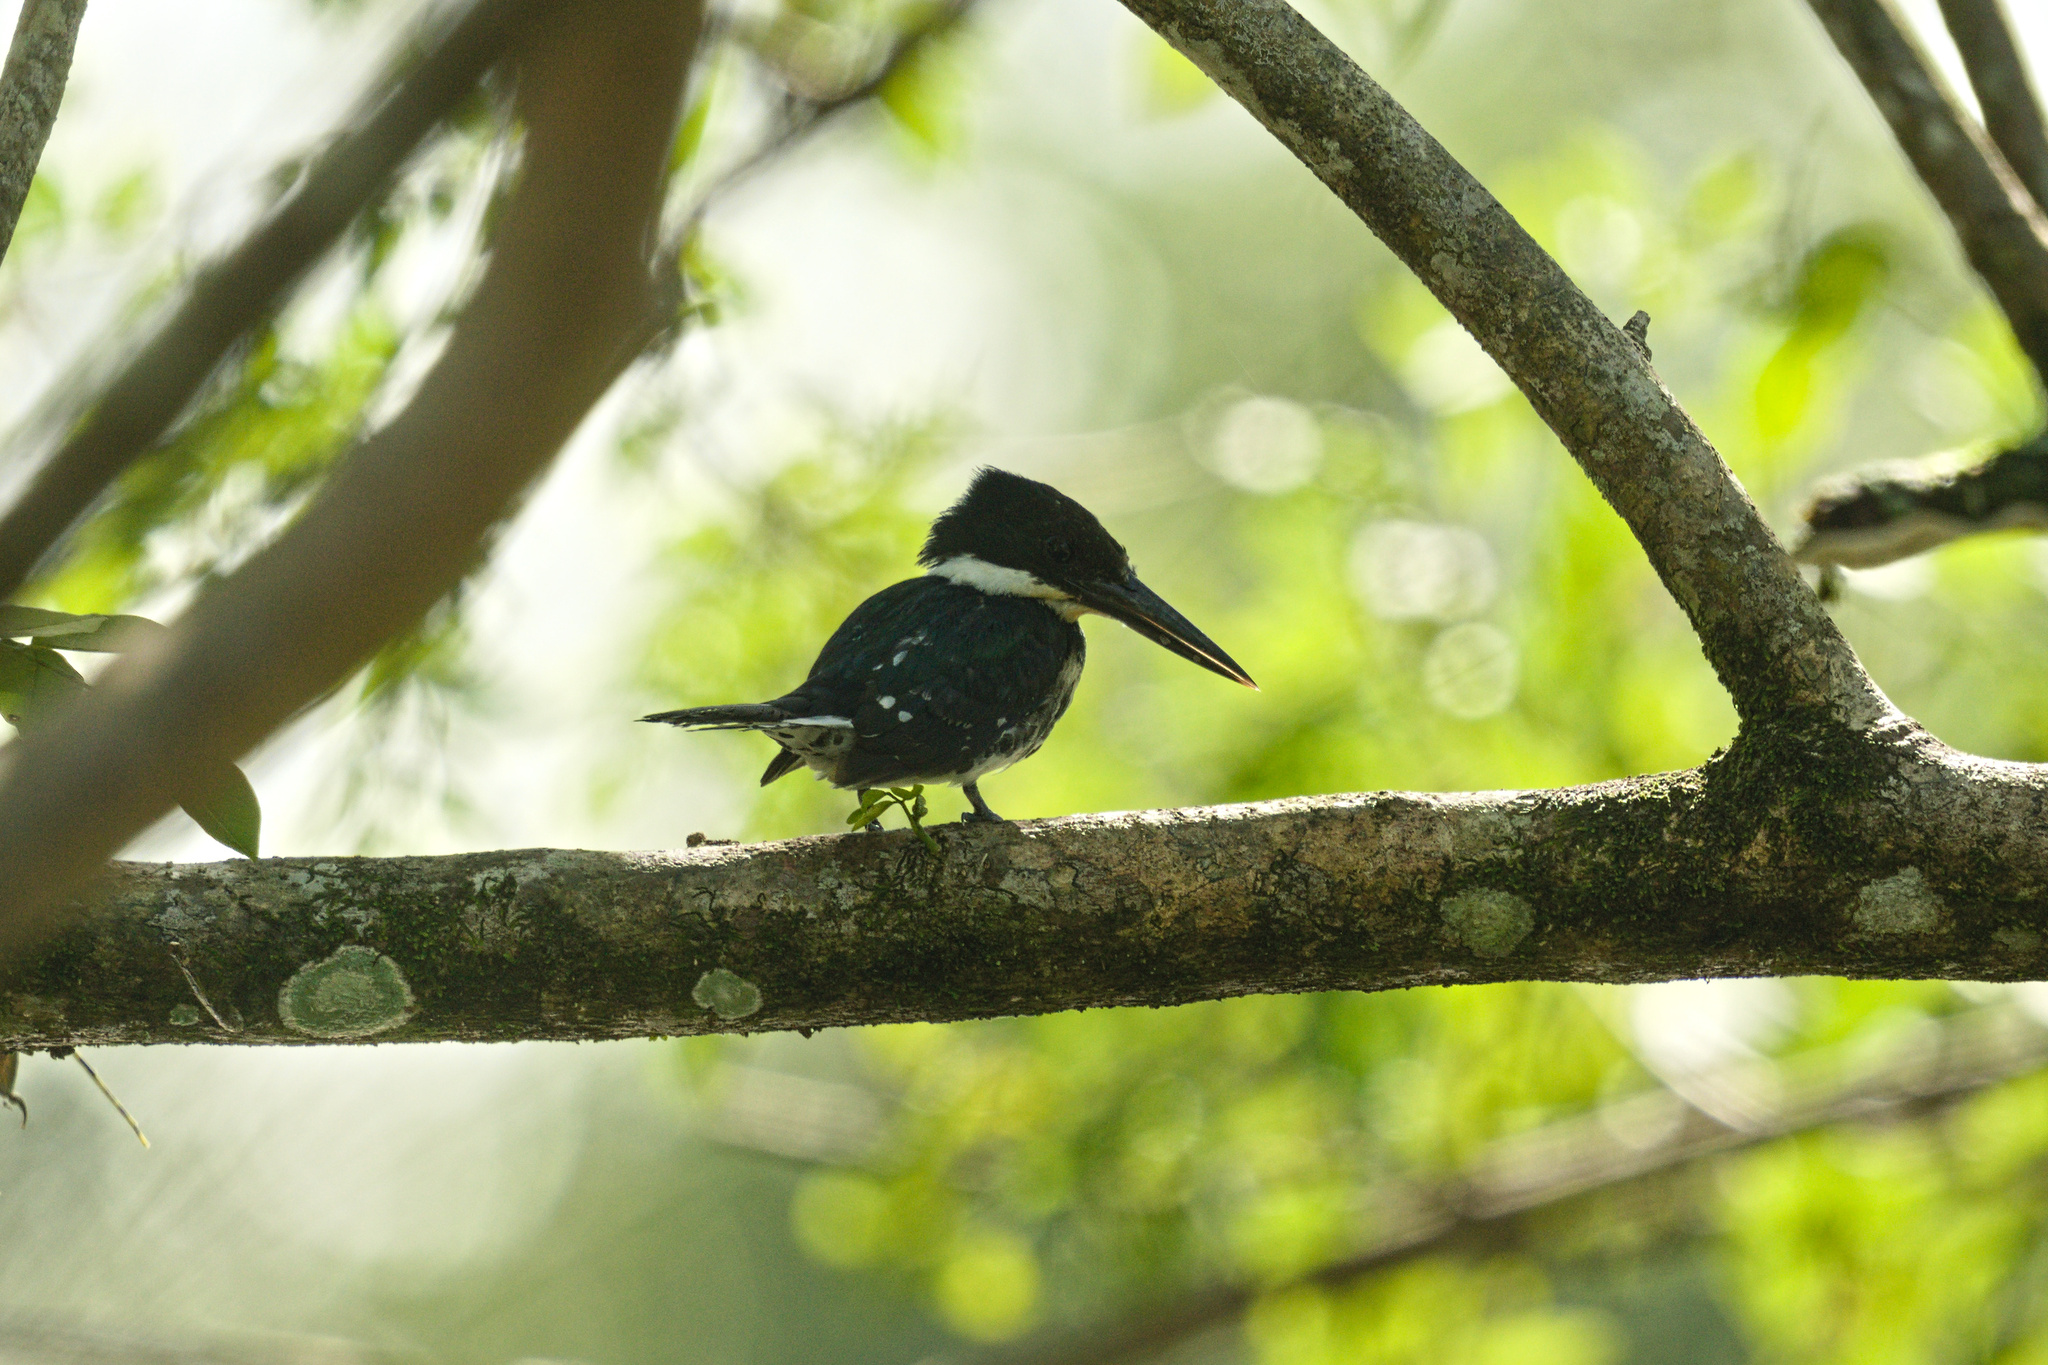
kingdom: Animalia
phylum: Chordata
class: Aves
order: Coraciiformes
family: Alcedinidae
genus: Chloroceryle
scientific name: Chloroceryle americana
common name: Green kingfisher
